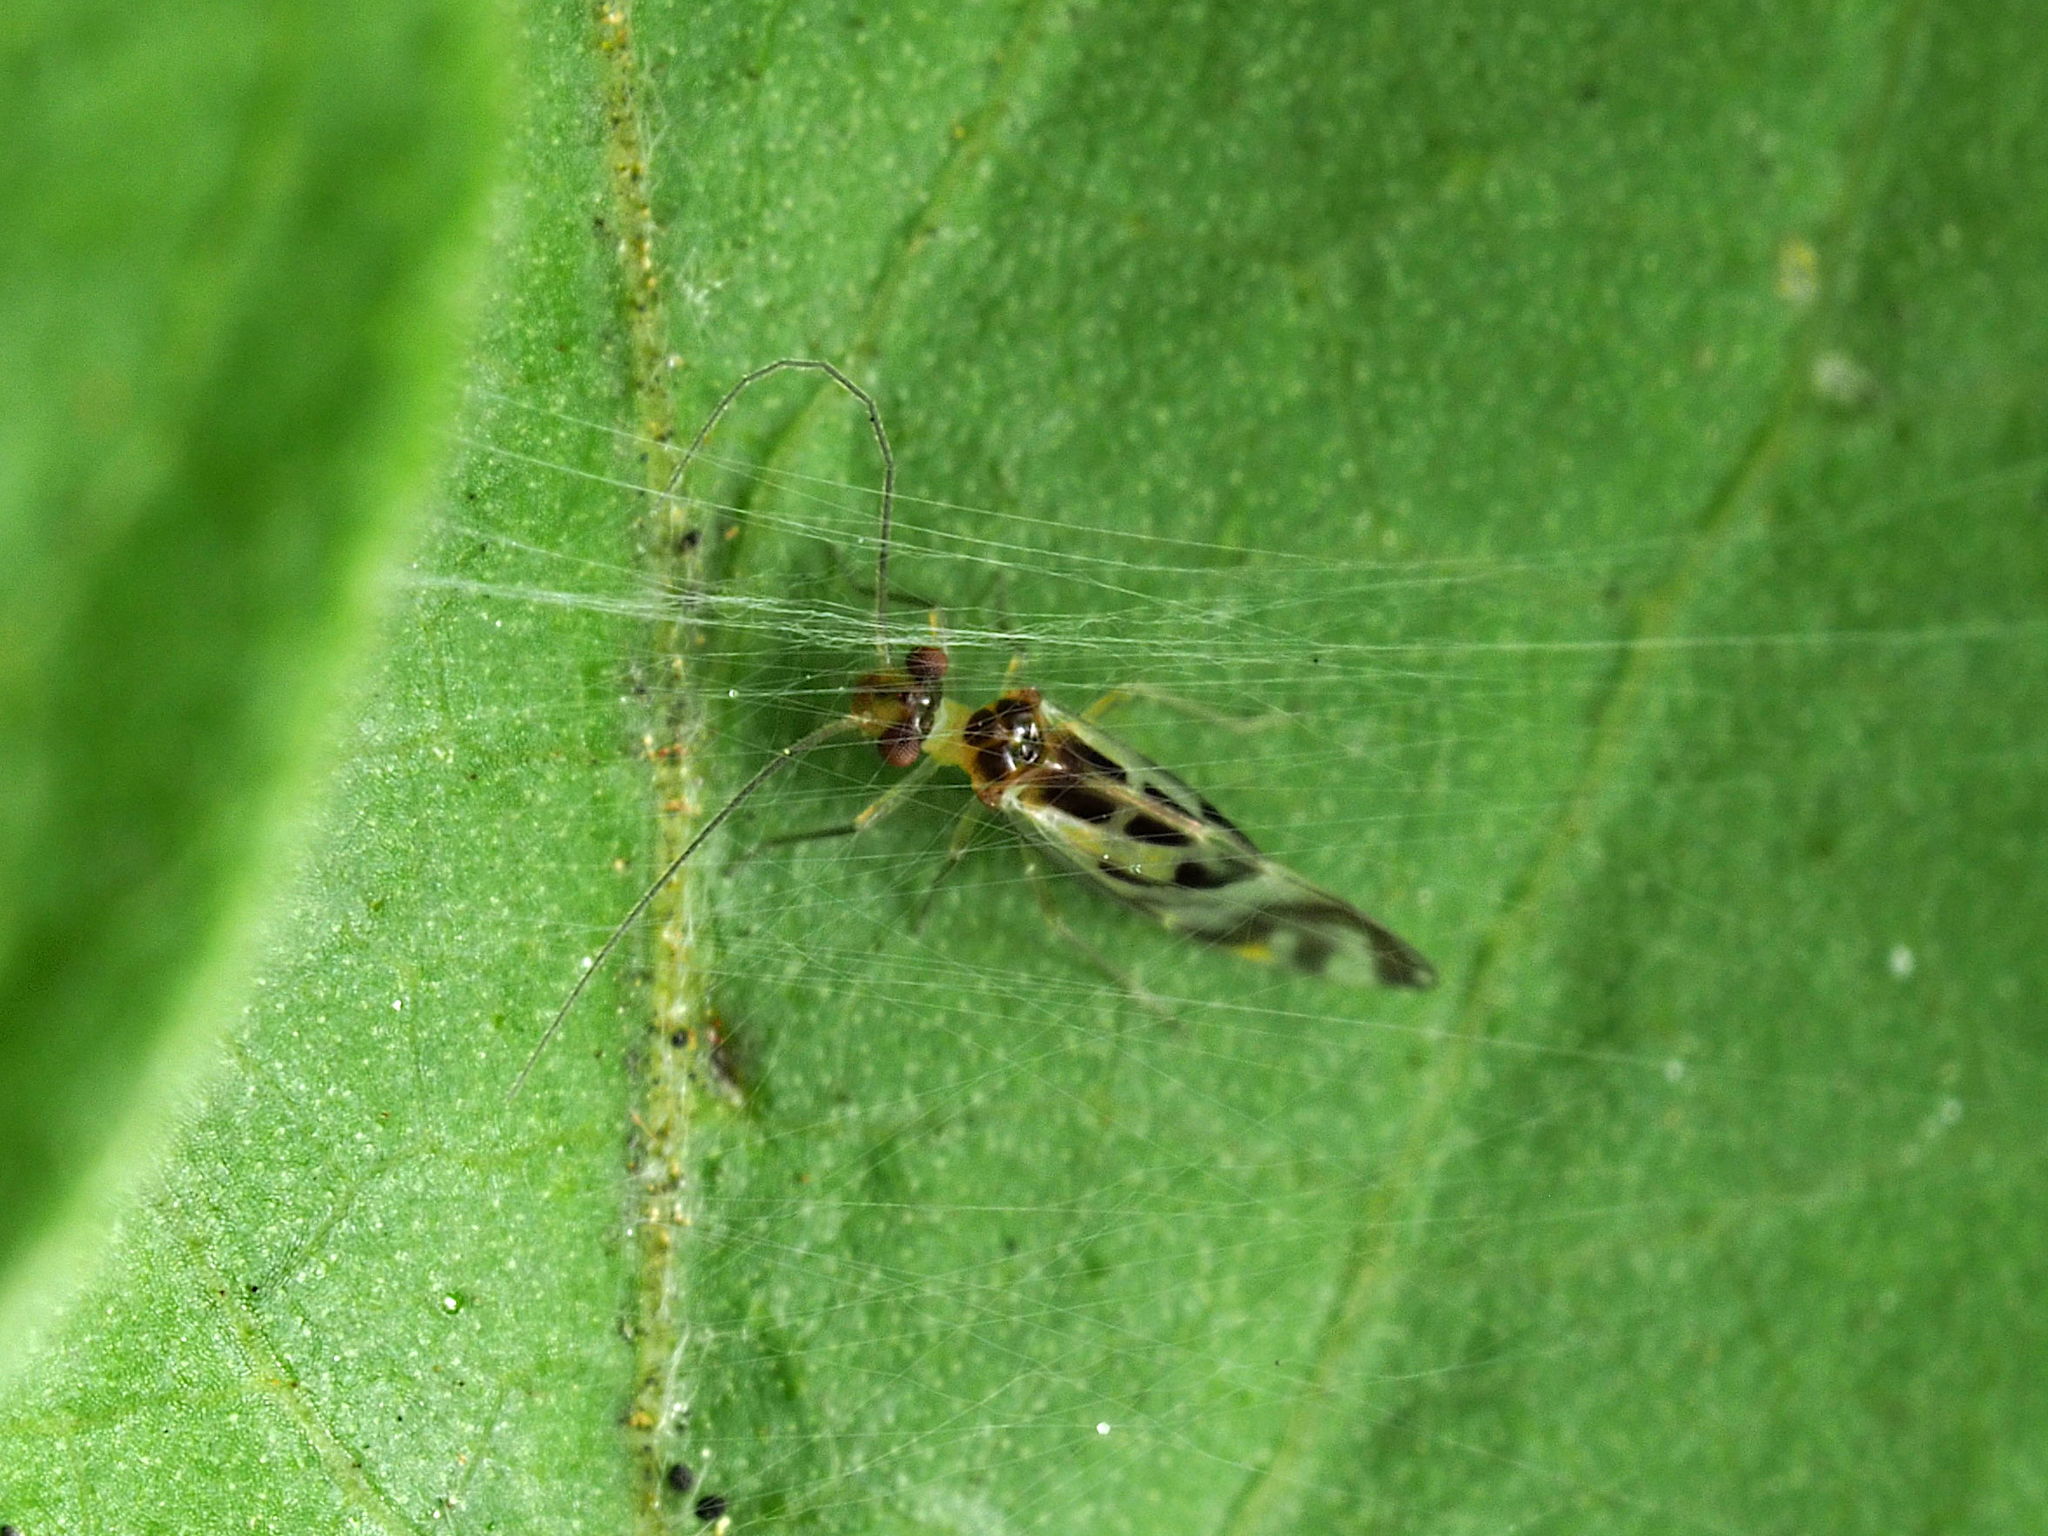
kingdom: Animalia
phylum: Arthropoda
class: Insecta
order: Psocodea
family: Stenopsocidae
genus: Graphopsocus
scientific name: Graphopsocus cruciatus
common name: Lizard bark louse
